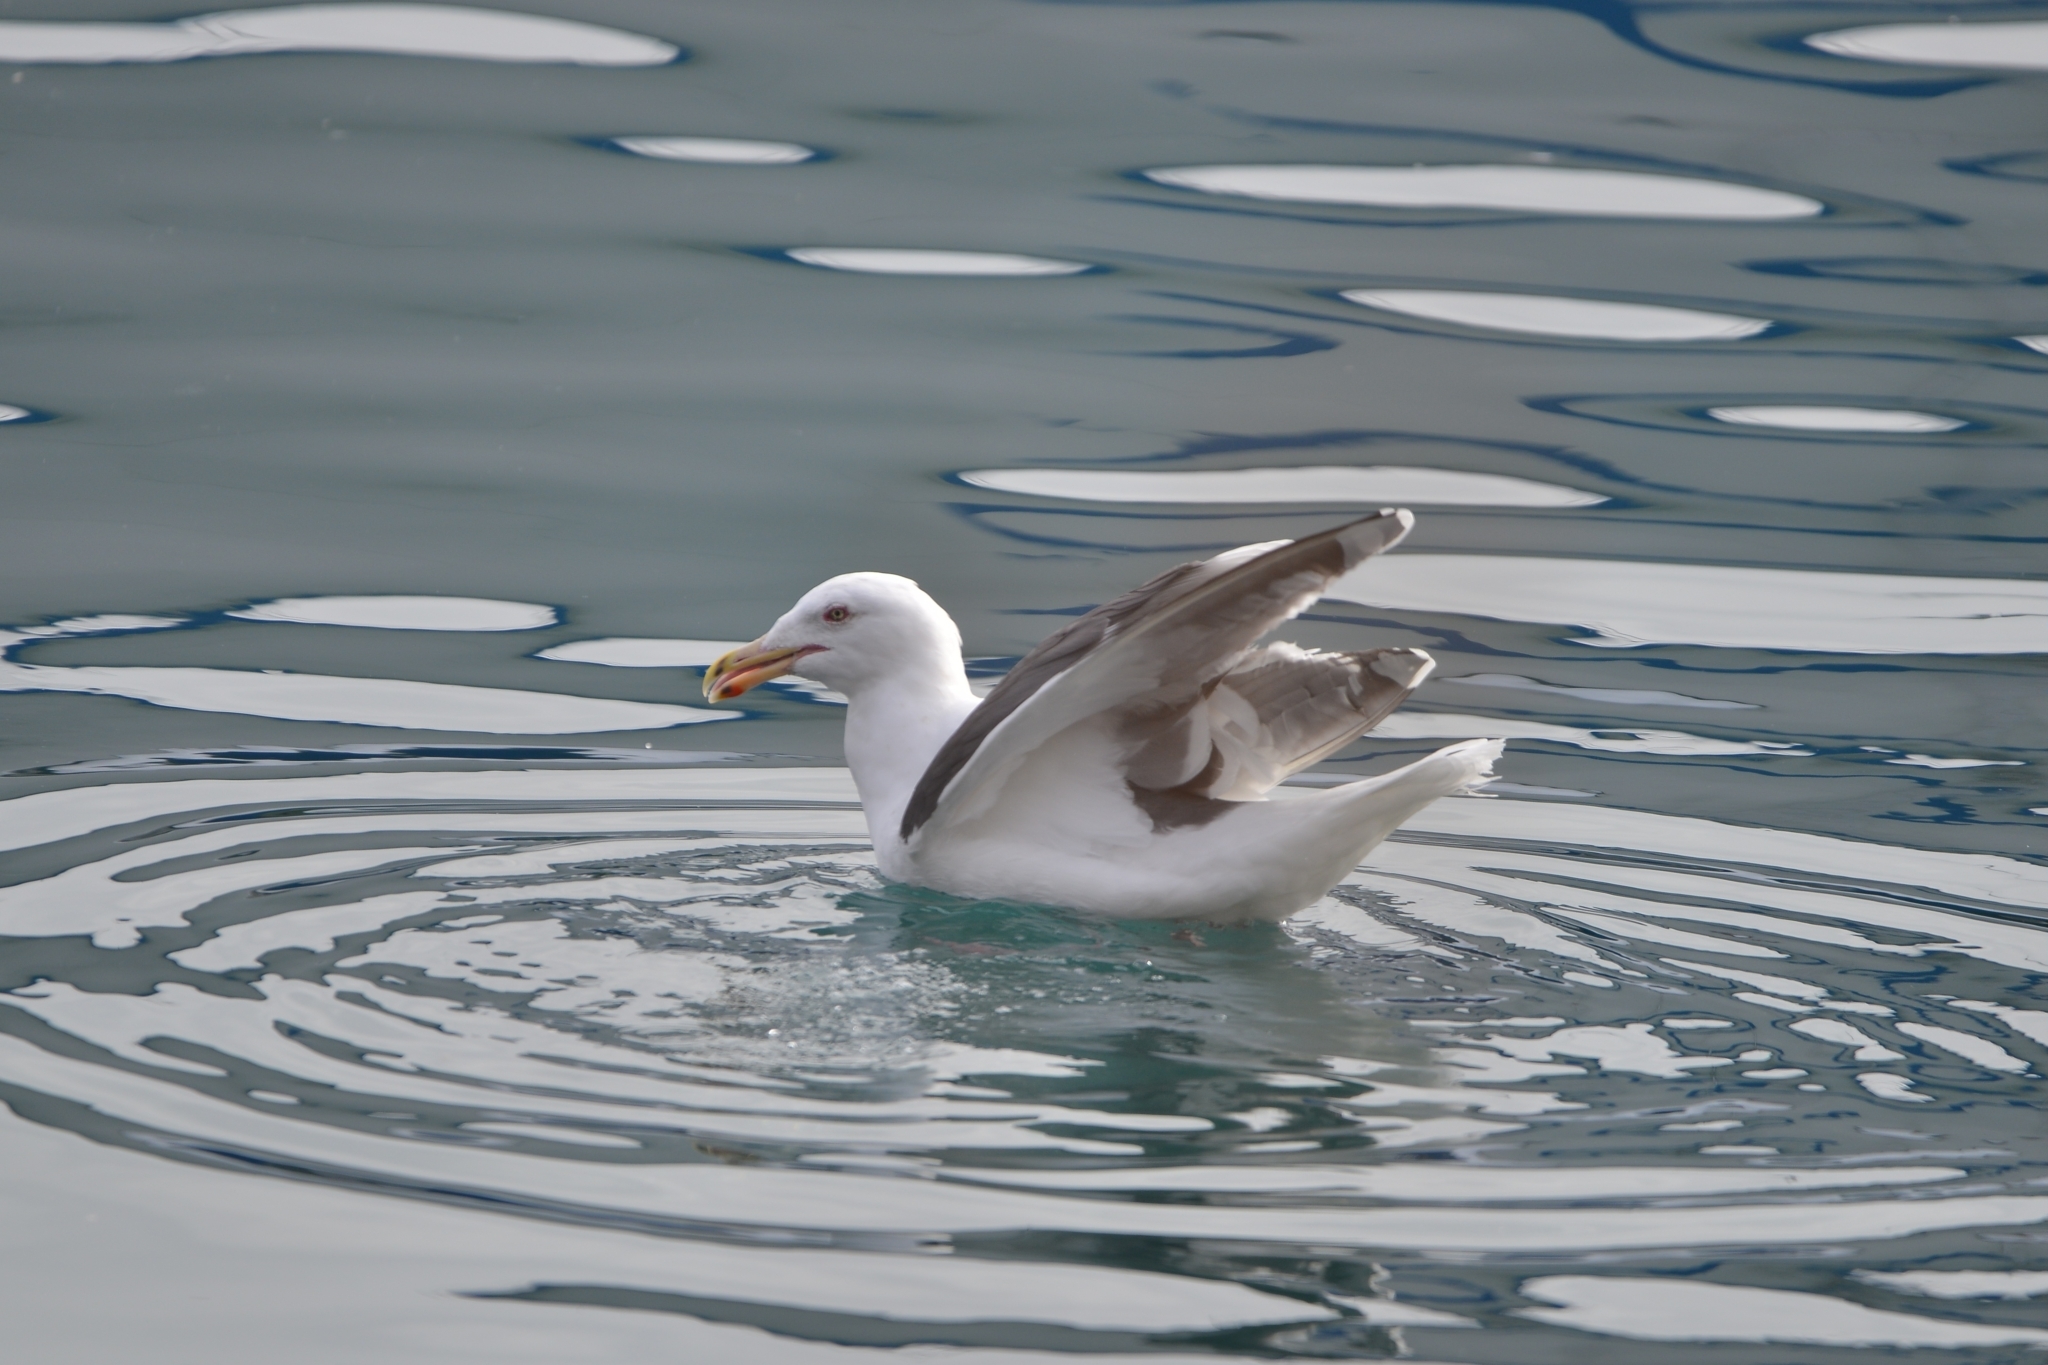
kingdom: Animalia
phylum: Chordata
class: Aves
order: Charadriiformes
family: Laridae
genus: Larus
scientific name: Larus schistisagus
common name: Slaty-backed gull
